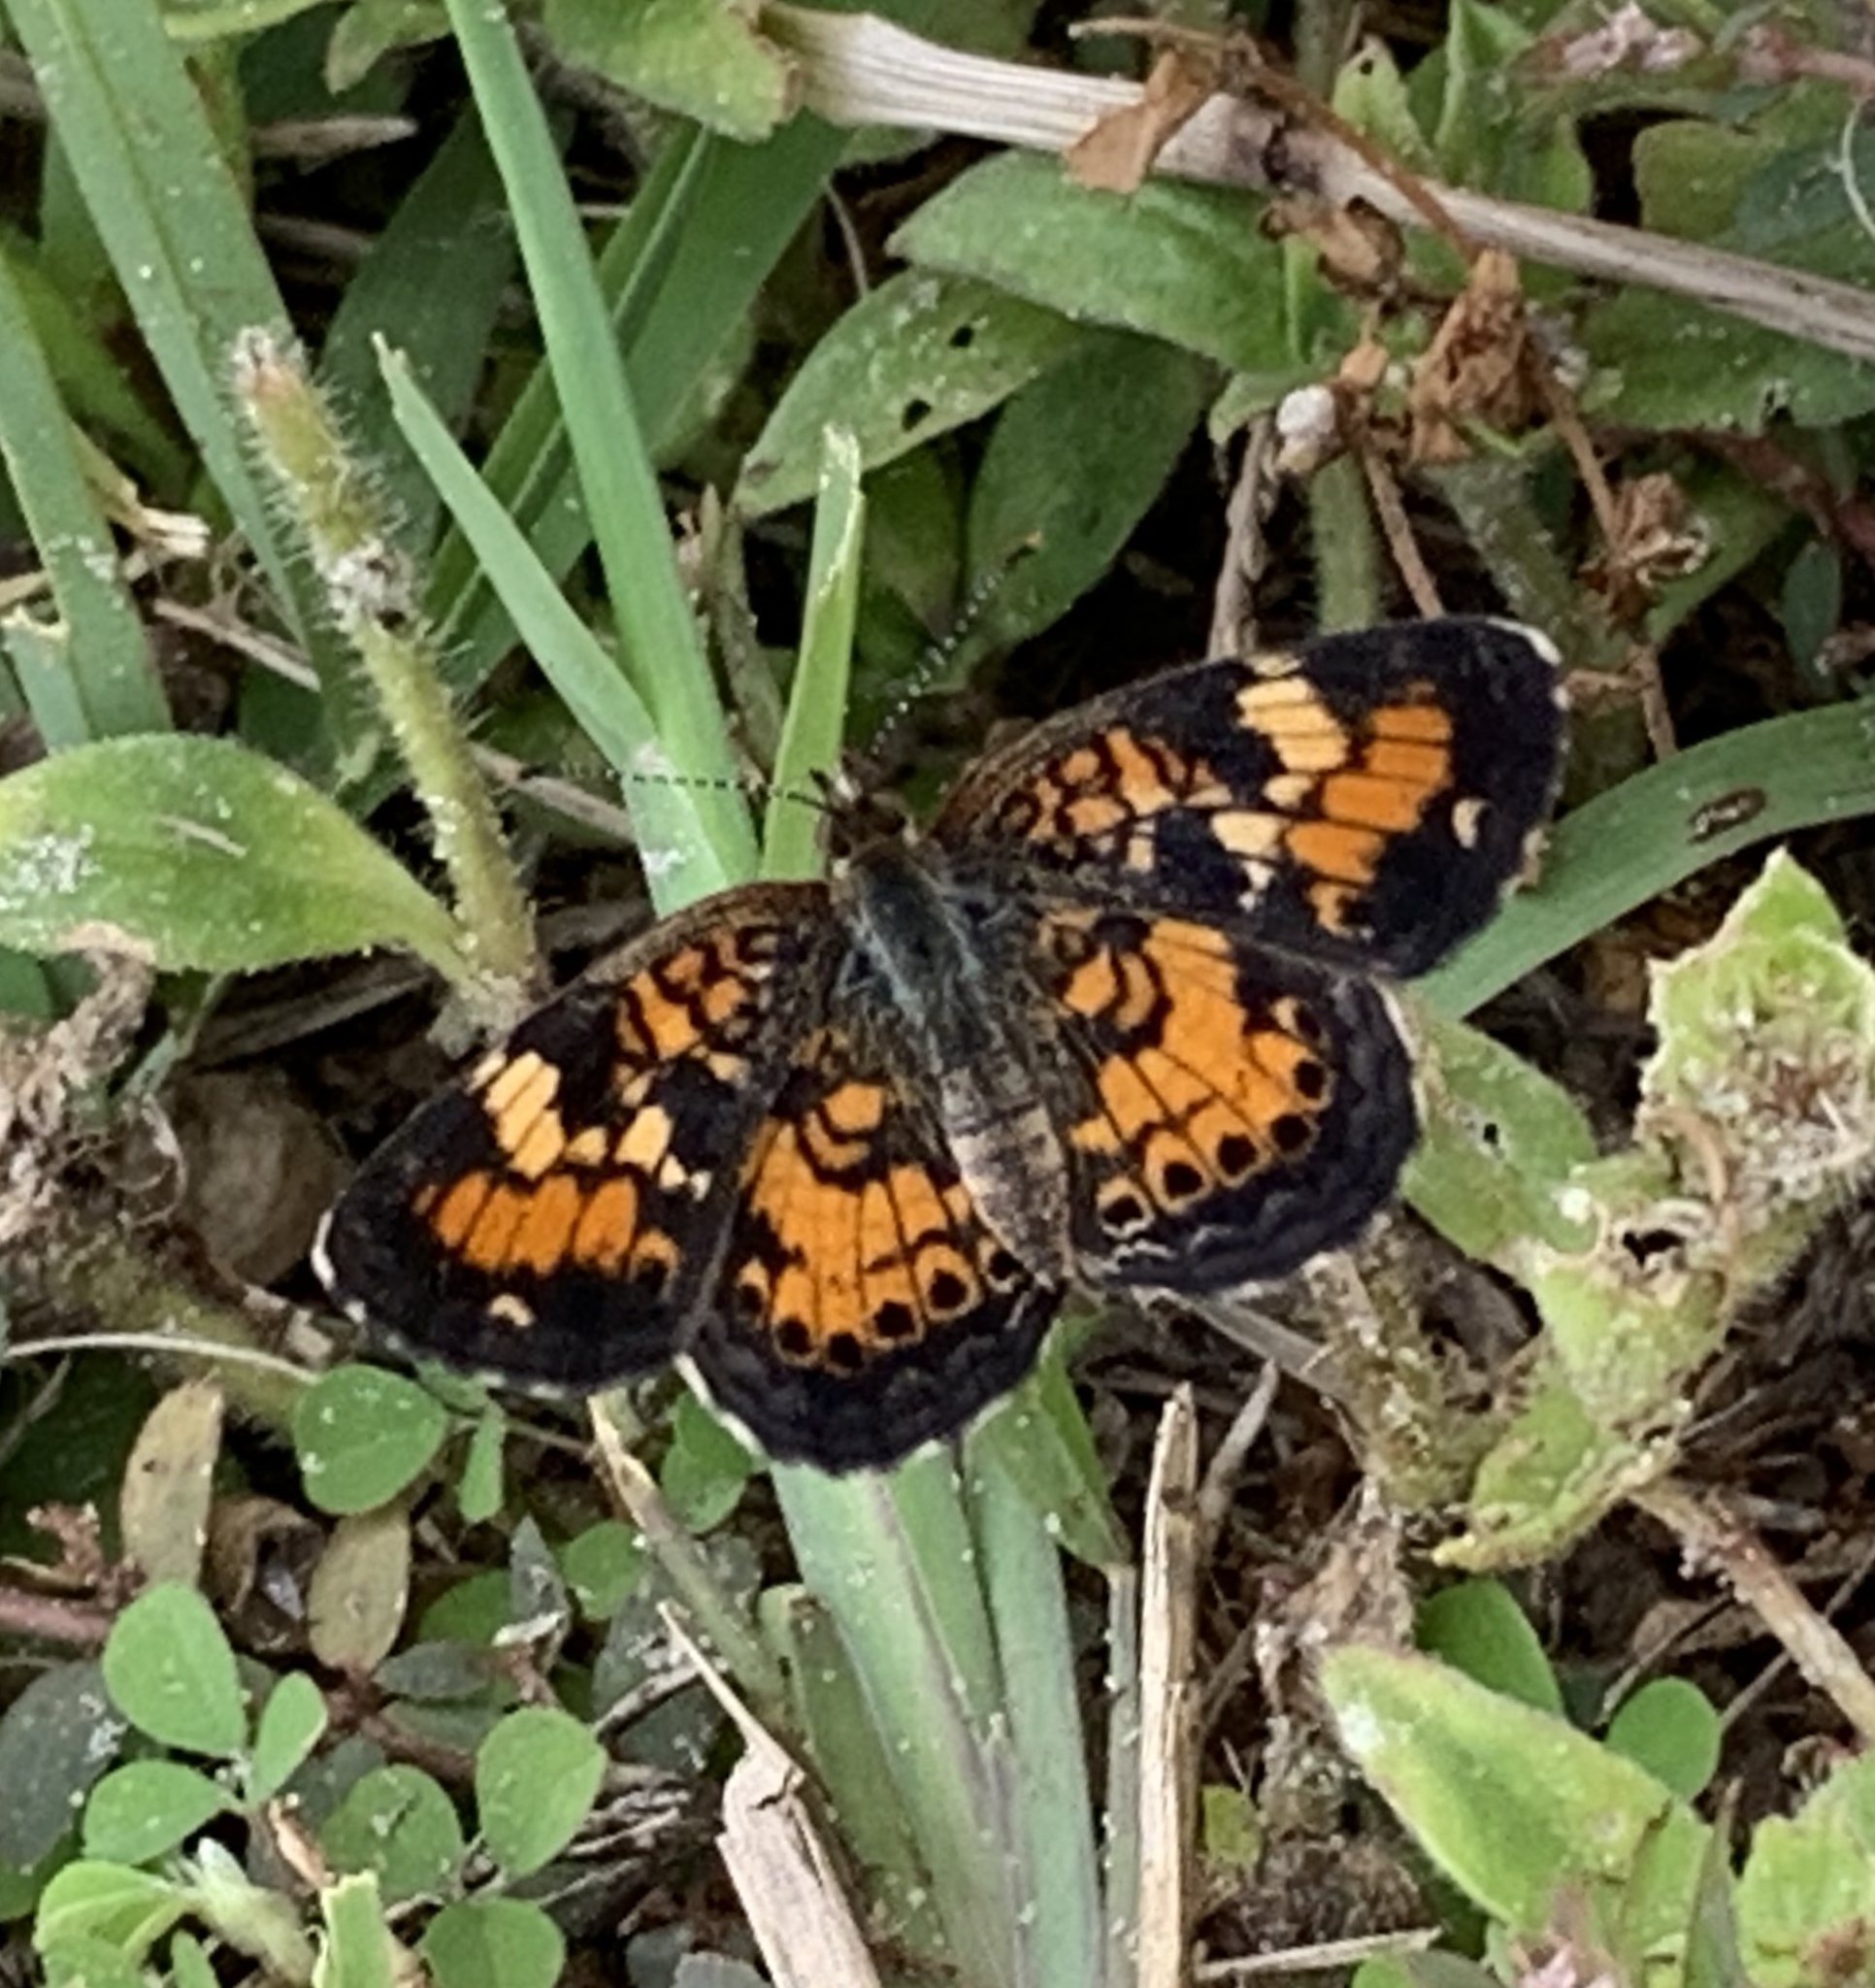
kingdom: Animalia
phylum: Arthropoda
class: Insecta
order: Lepidoptera
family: Nymphalidae
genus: Phyciodes
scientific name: Phyciodes phaon
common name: Phaon crescent
